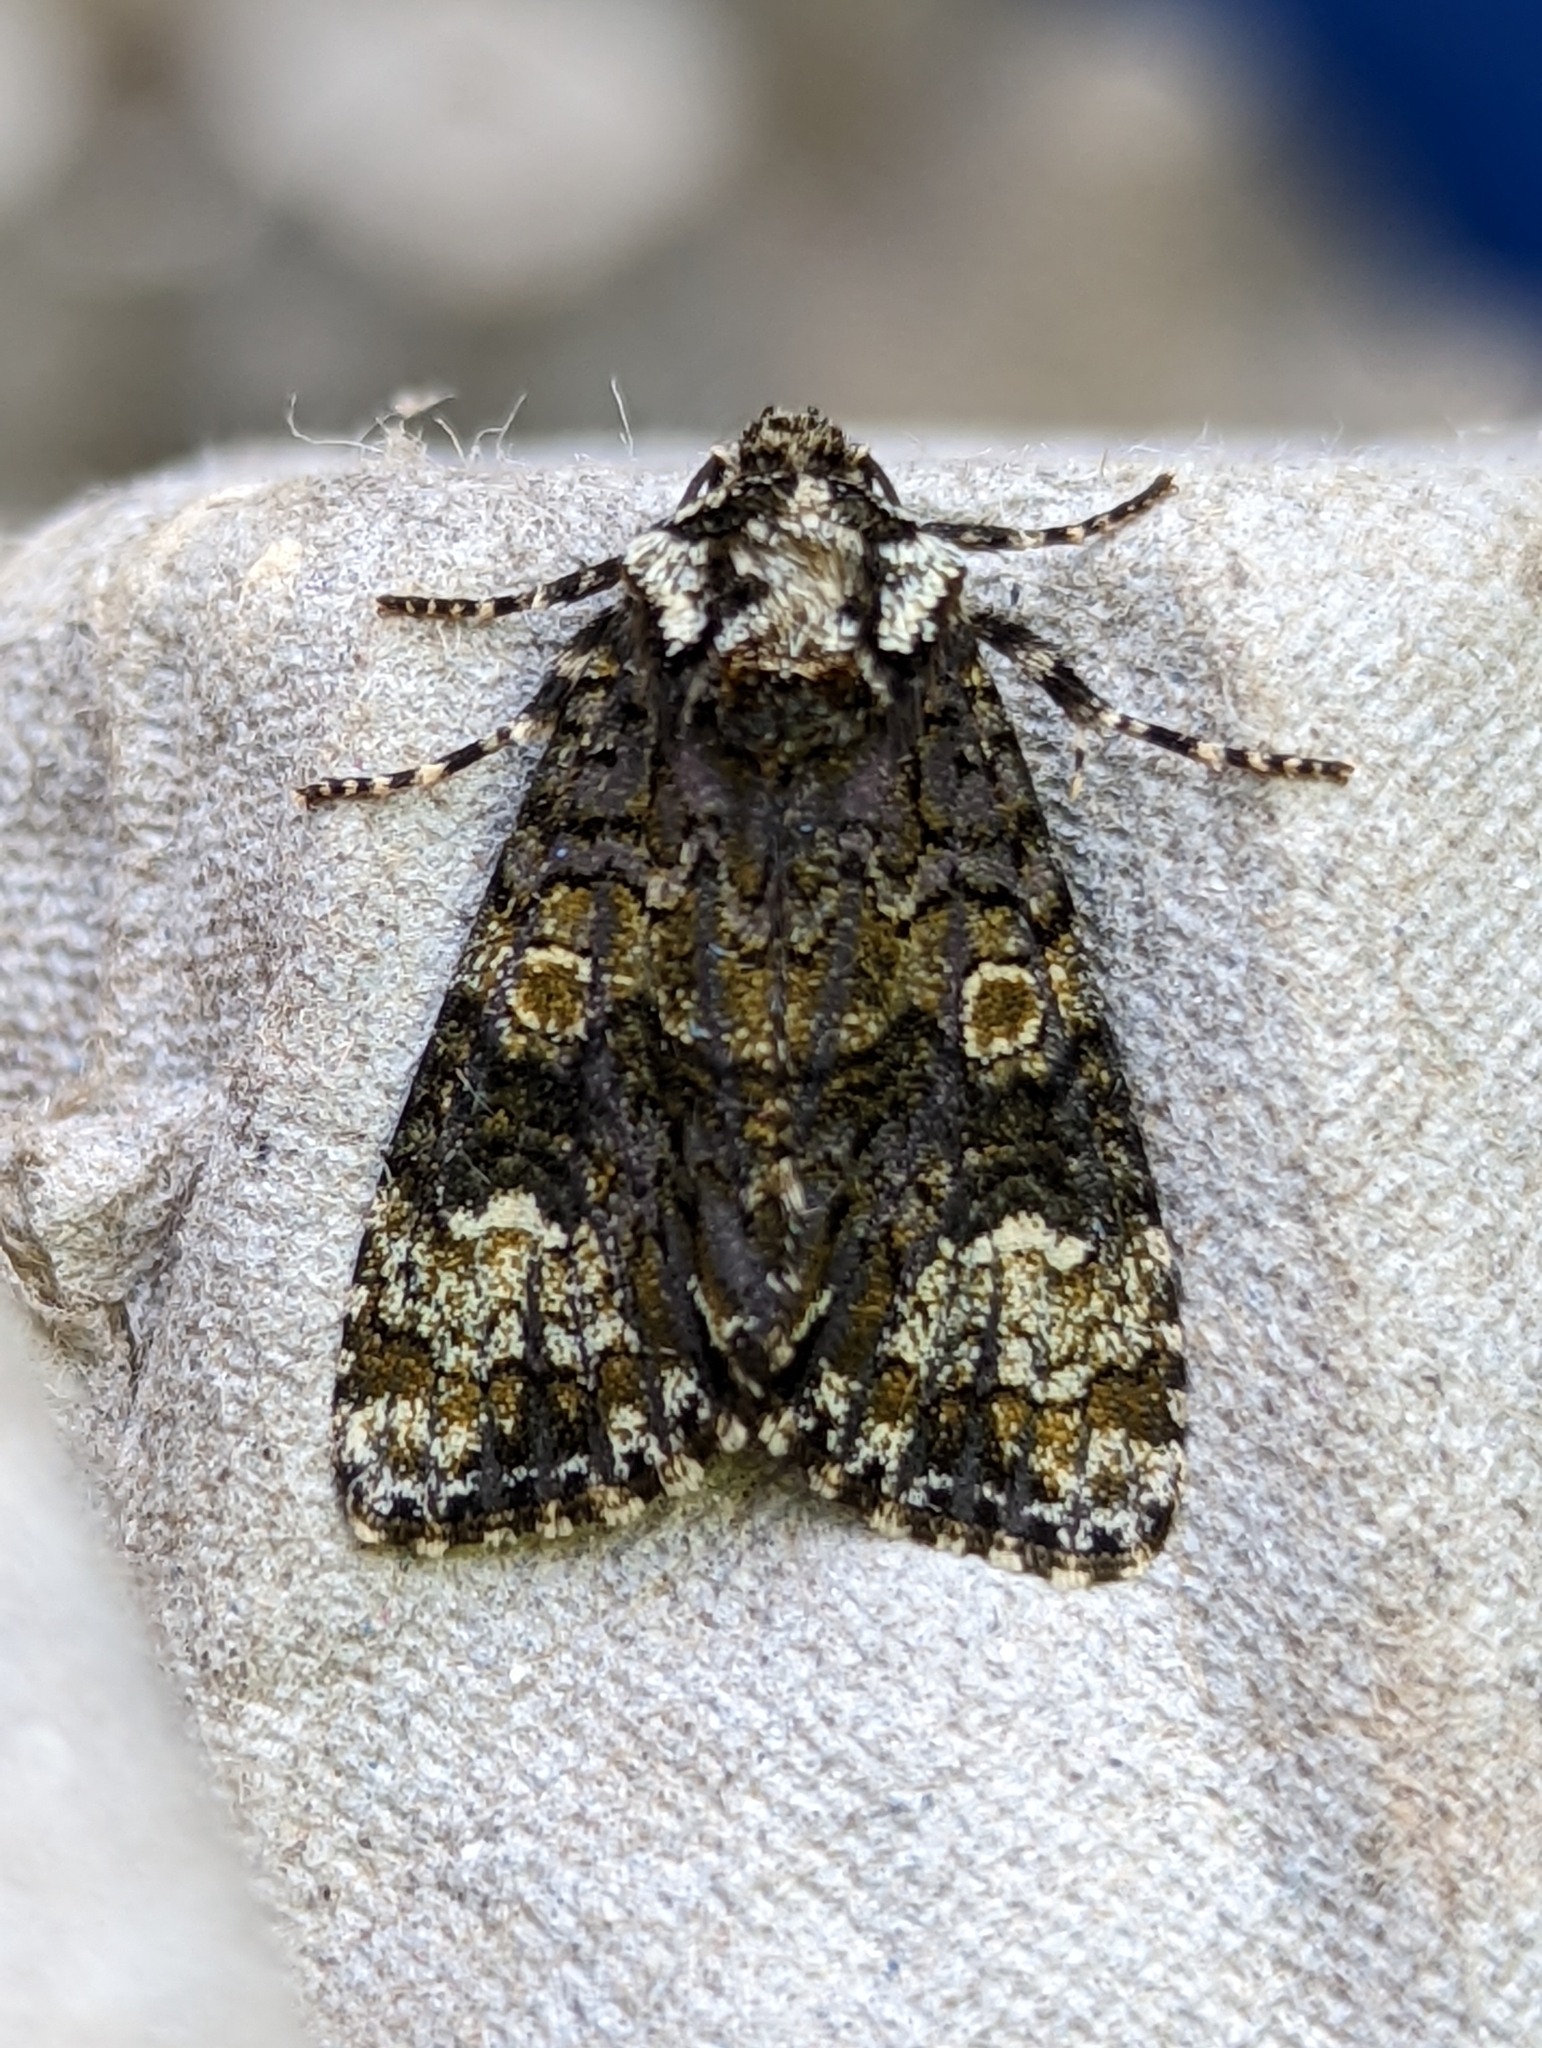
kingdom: Animalia
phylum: Arthropoda
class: Insecta
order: Lepidoptera
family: Noctuidae
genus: Craniophora
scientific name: Craniophora ligustri
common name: Coronet
